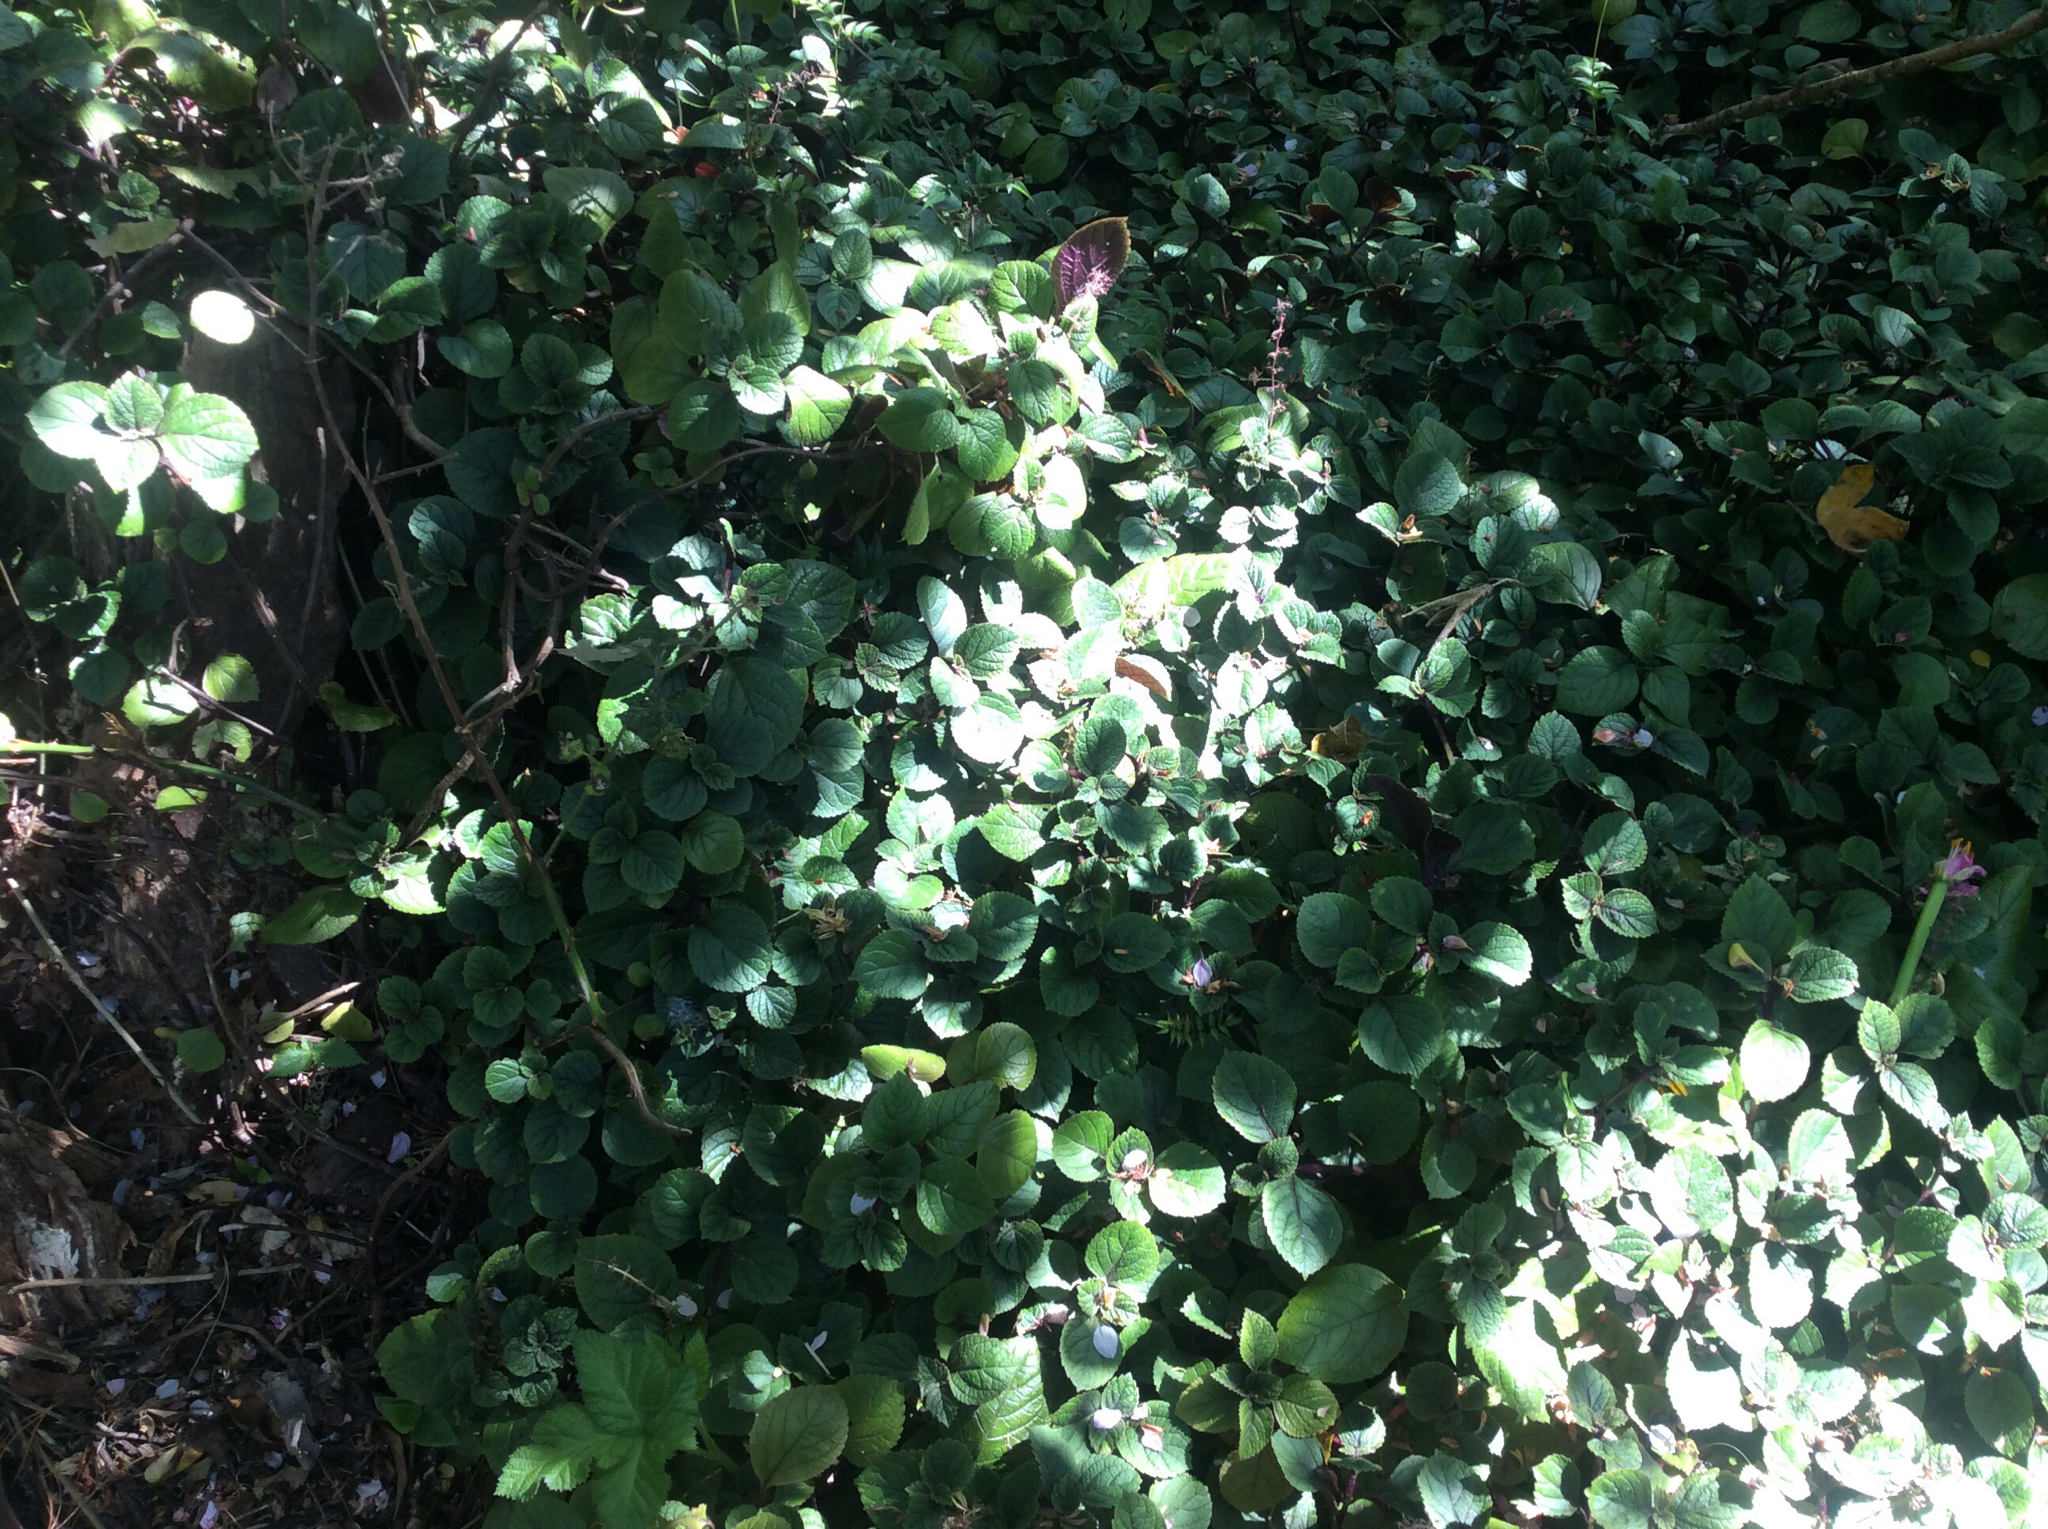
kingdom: Plantae
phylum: Tracheophyta
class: Magnoliopsida
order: Lamiales
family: Lamiaceae
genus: Plectranthus
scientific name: Plectranthus ciliatus
